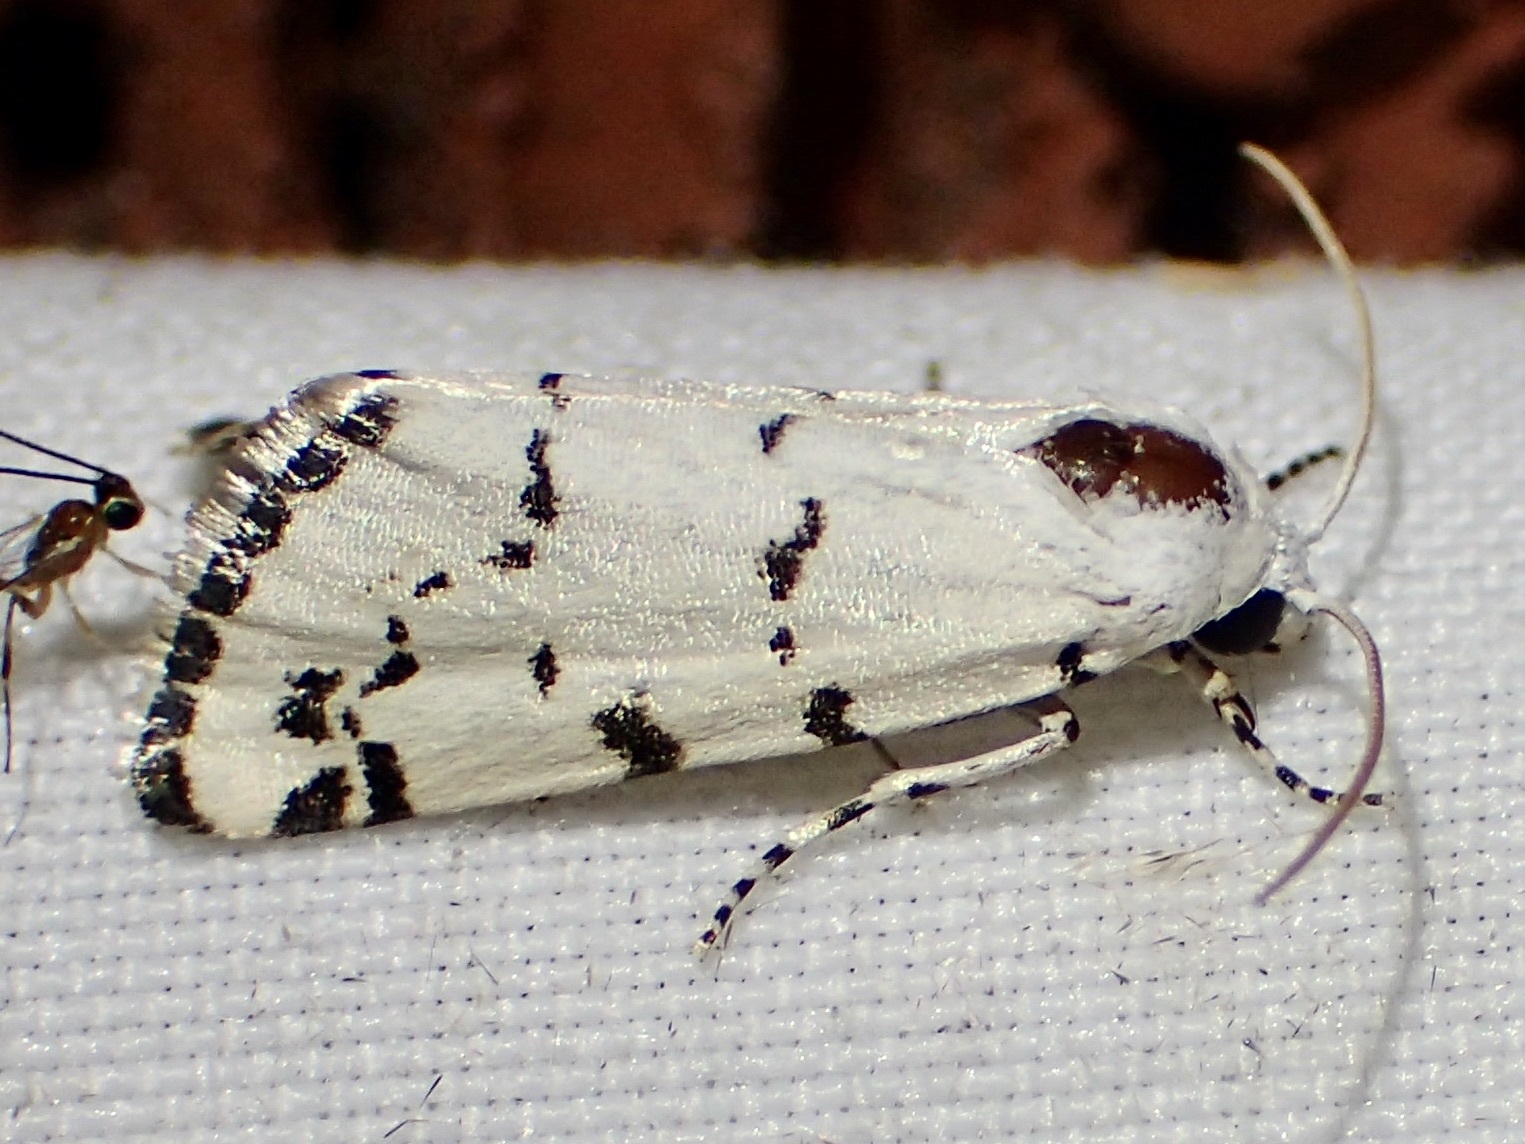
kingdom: Animalia
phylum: Arthropoda
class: Insecta
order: Lepidoptera
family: Noctuidae
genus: Grotella
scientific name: Grotella binda
